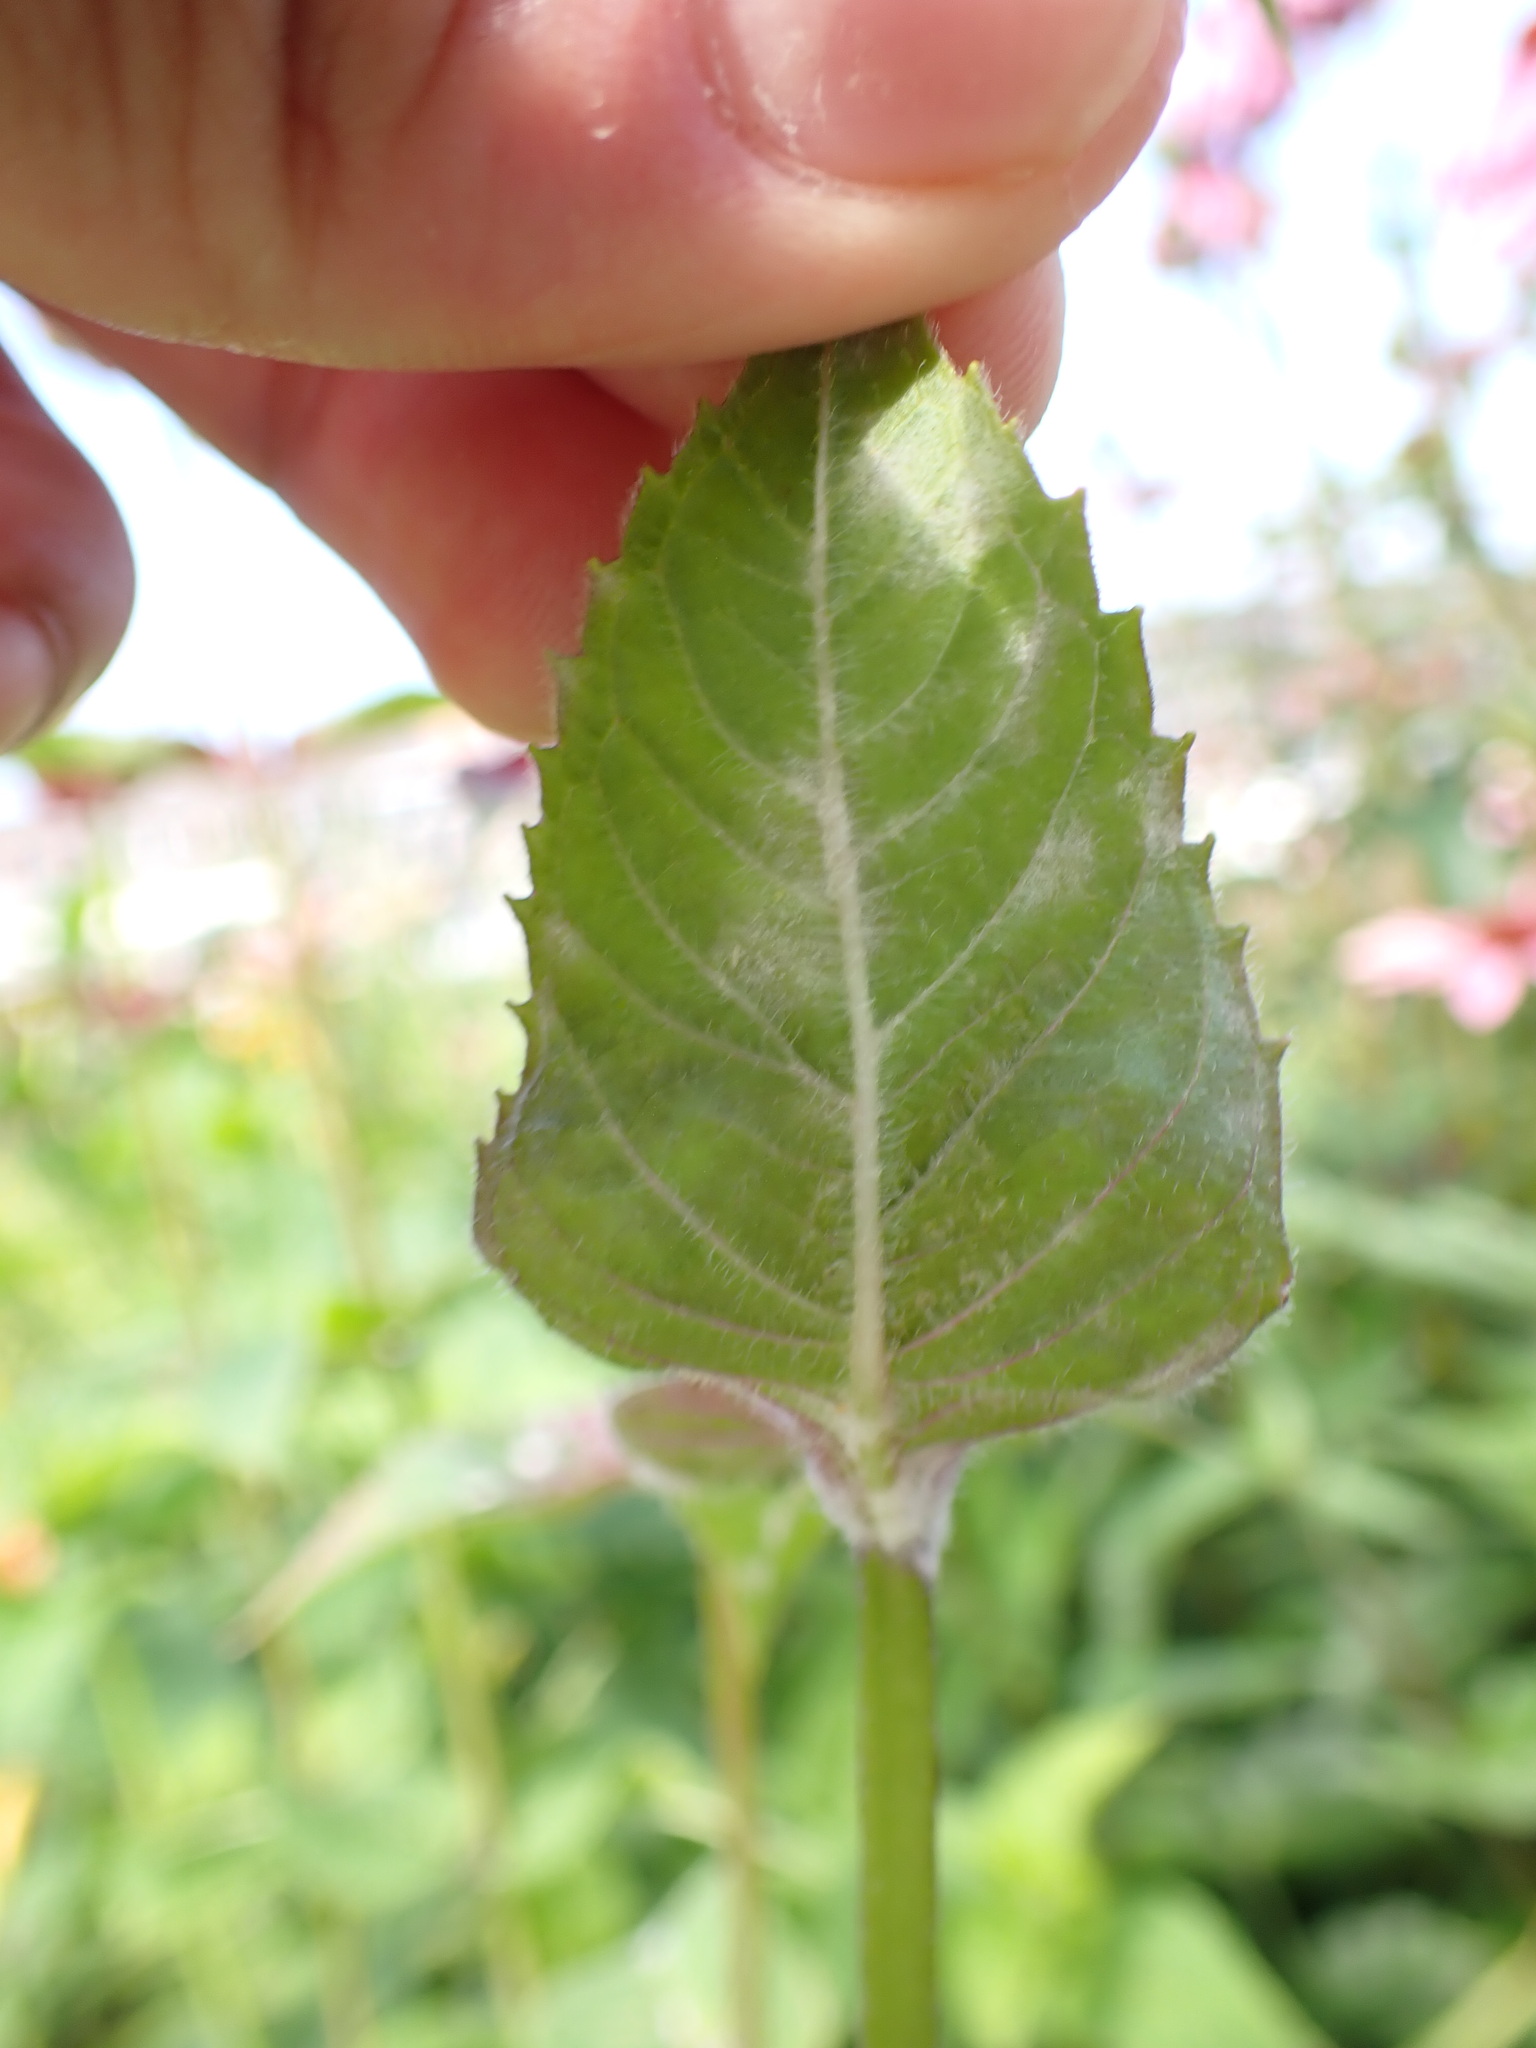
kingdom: Fungi
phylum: Ascomycota
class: Leotiomycetes
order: Helotiales
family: Erysiphaceae
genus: Golovinomyces
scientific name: Golovinomyces monardae
